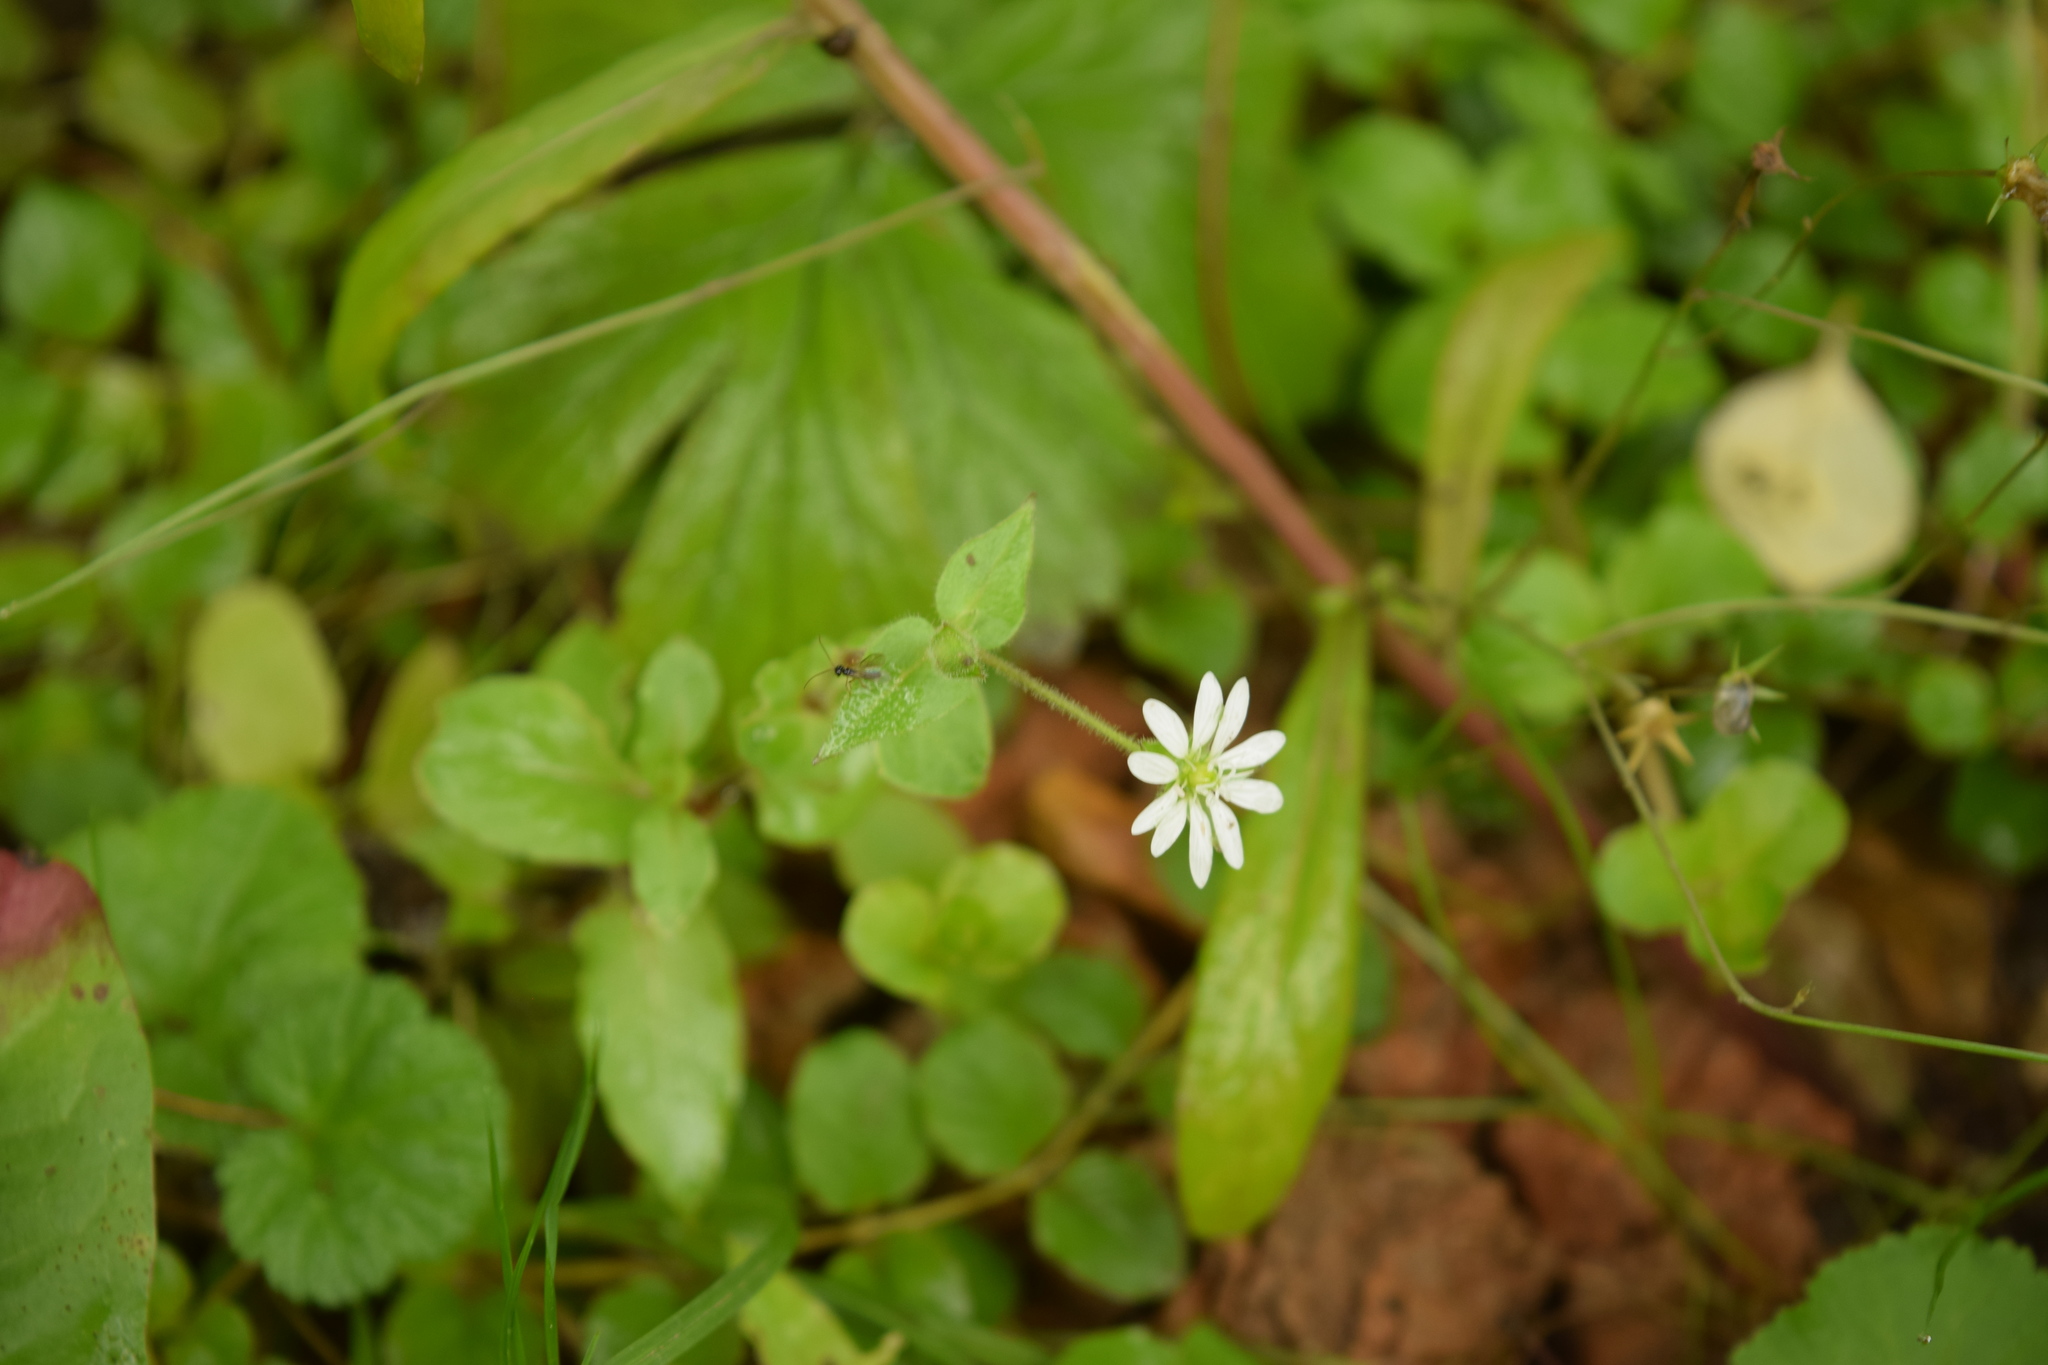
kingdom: Plantae
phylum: Tracheophyta
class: Magnoliopsida
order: Caryophyllales
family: Caryophyllaceae
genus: Stellaria
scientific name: Stellaria aquatica
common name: Water chickweed
